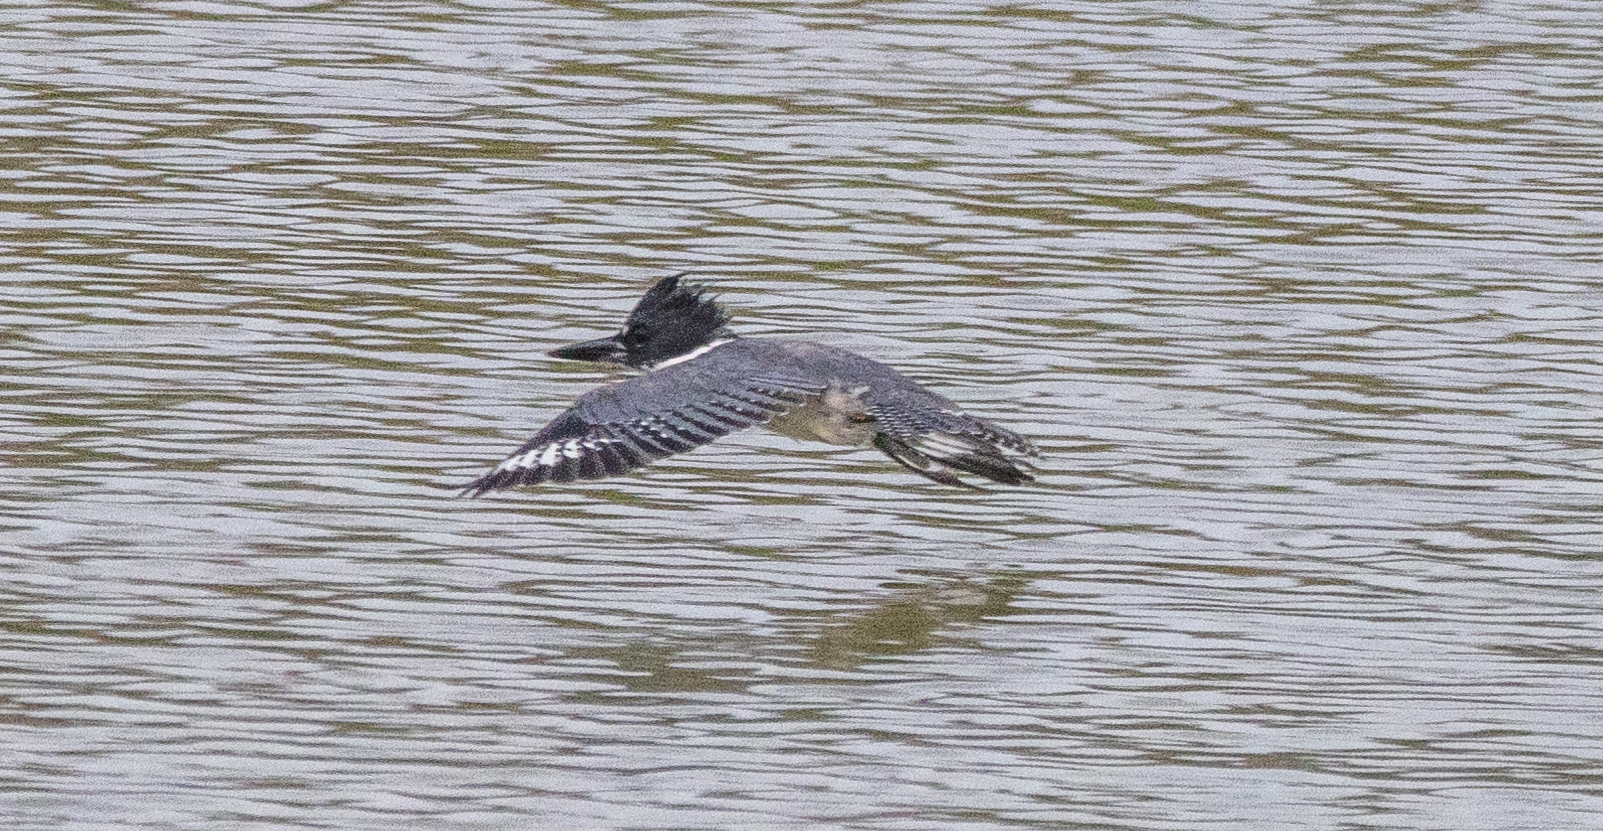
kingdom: Animalia
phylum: Chordata
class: Aves
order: Coraciiformes
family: Alcedinidae
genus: Megaceryle
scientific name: Megaceryle alcyon
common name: Belted kingfisher
